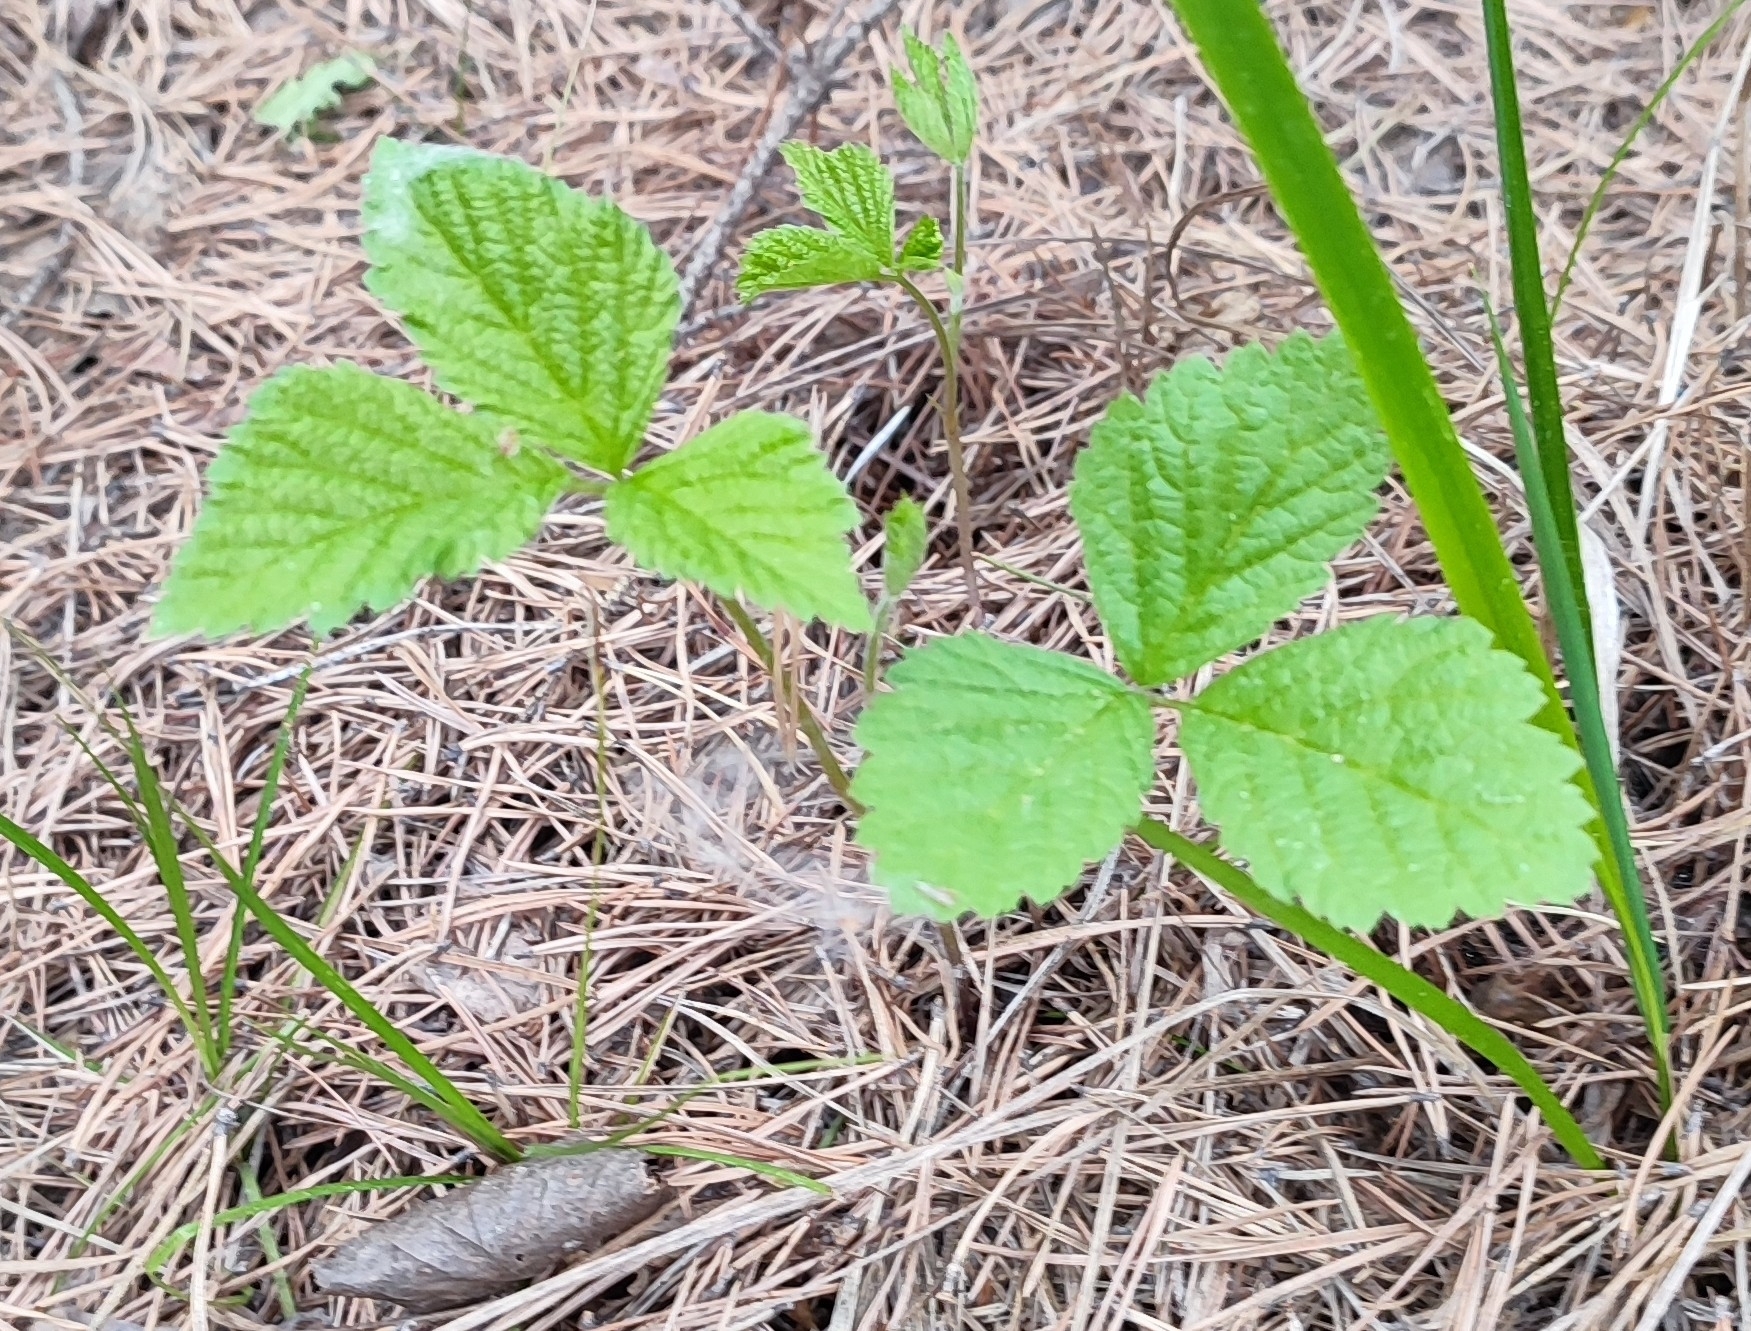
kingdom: Plantae
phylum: Tracheophyta
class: Magnoliopsida
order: Rosales
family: Rosaceae
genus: Rubus
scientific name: Rubus saxatilis
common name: Stone bramble
